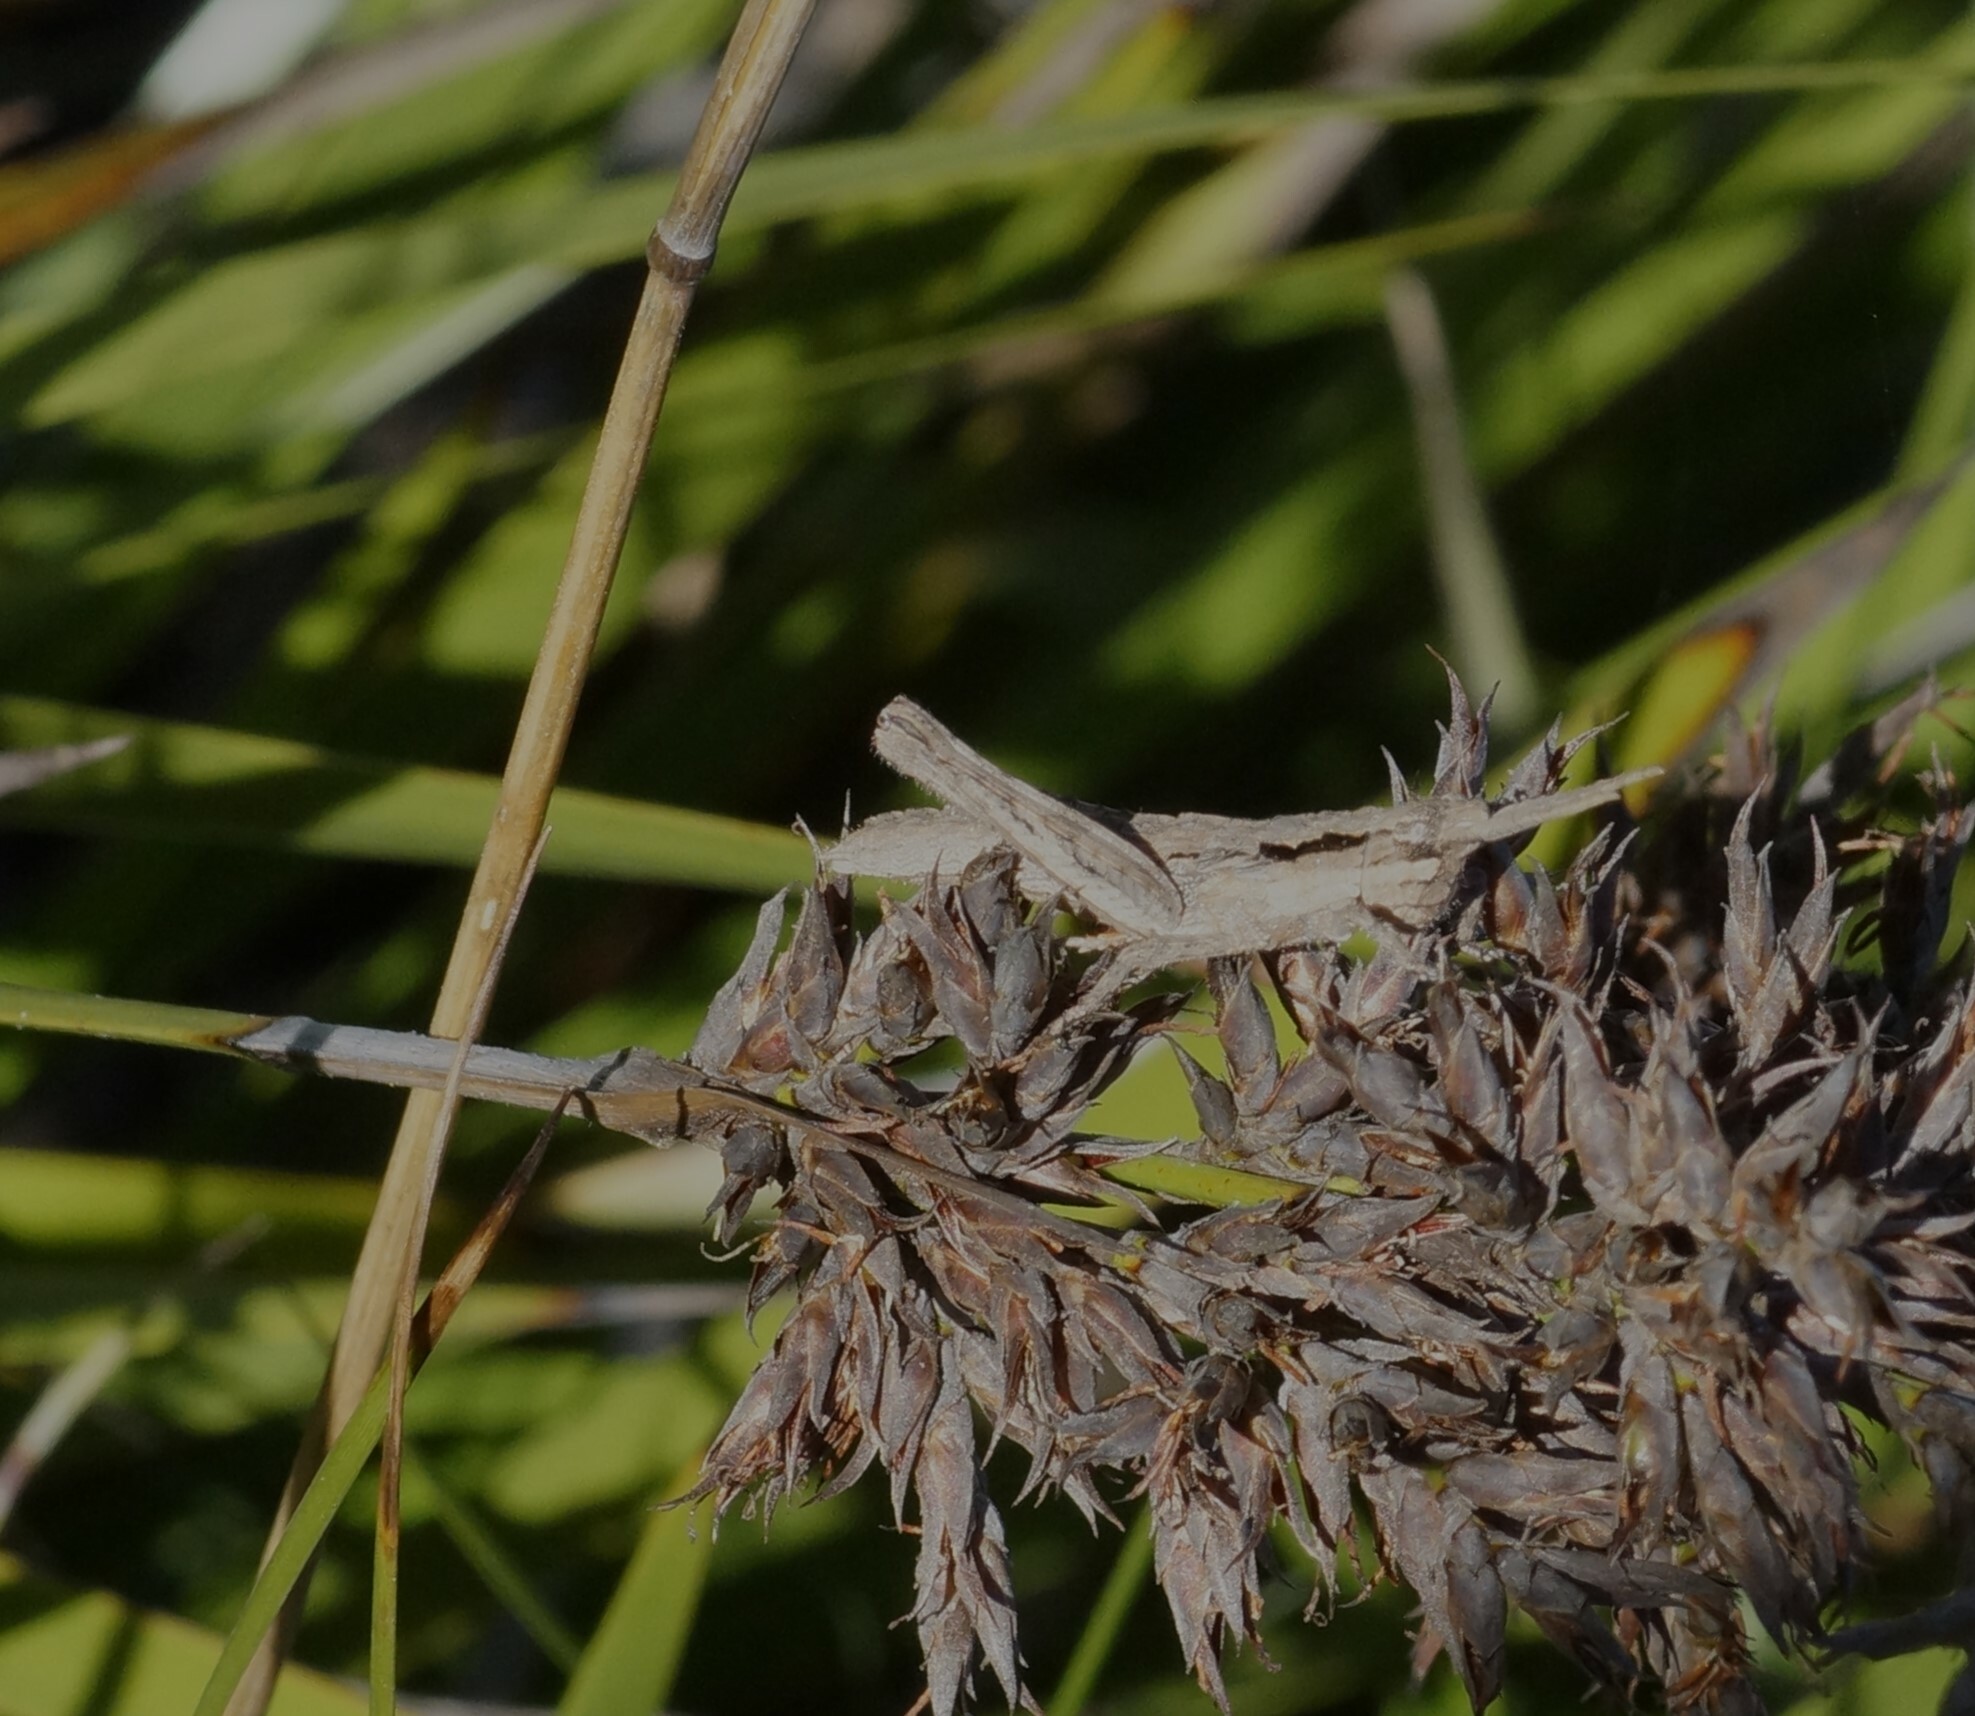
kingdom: Animalia
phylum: Arthropoda
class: Insecta
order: Orthoptera
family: Acrididae
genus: Coryphistes
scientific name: Coryphistes ruricola
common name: Bark-mimicking grasshopper
